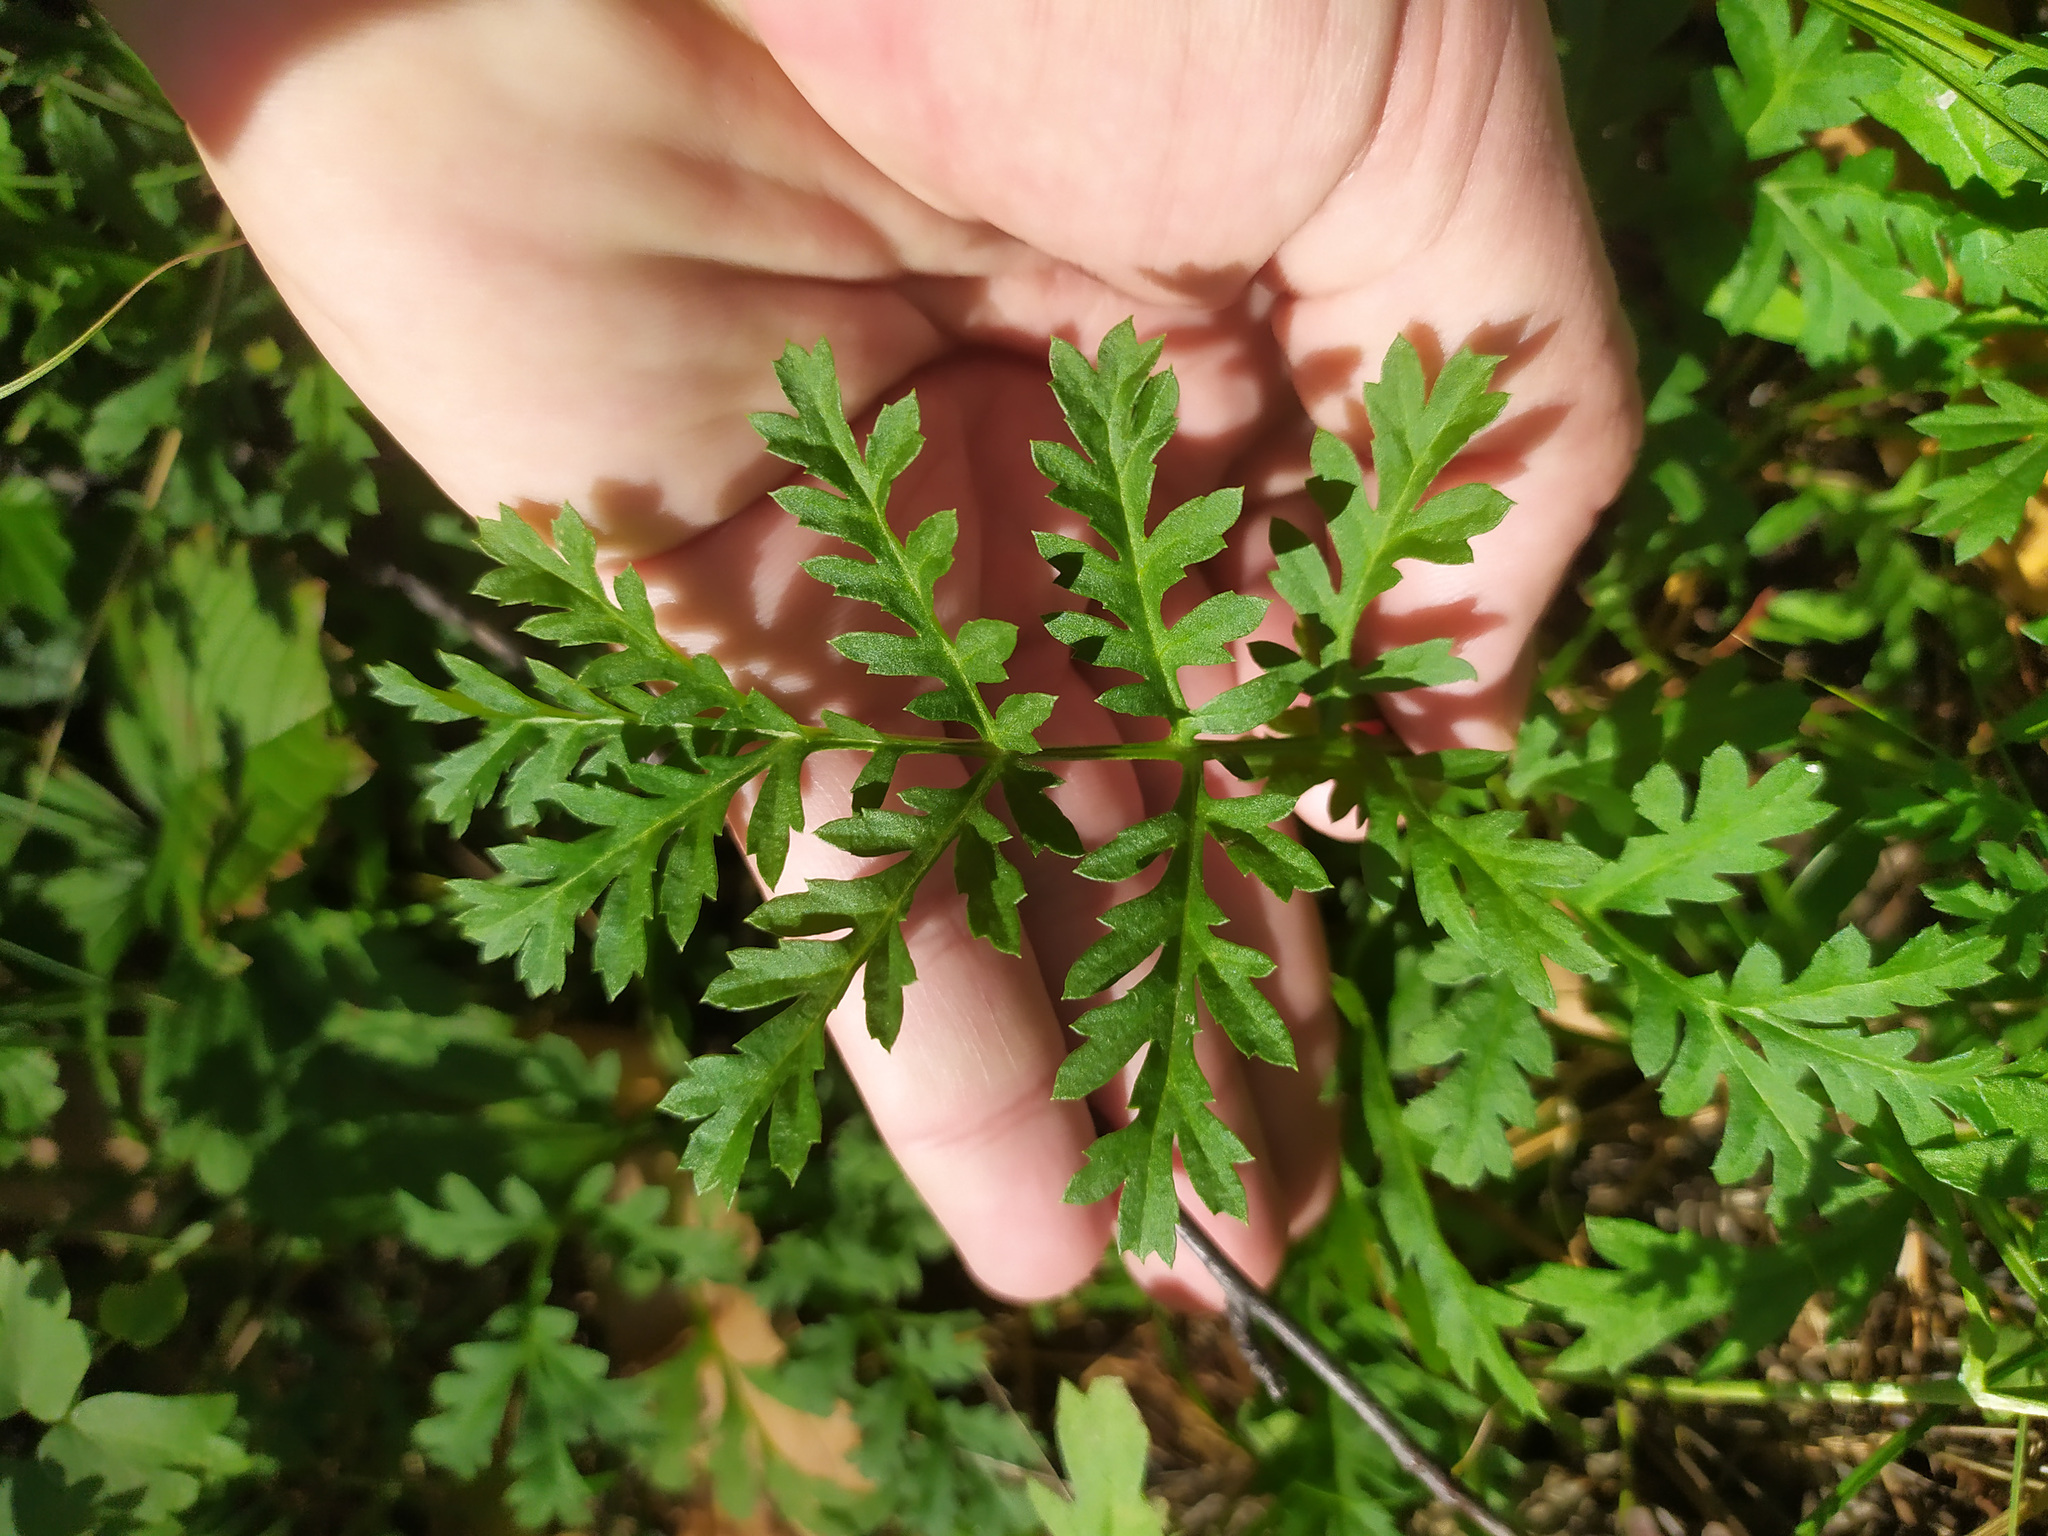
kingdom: Plantae
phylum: Tracheophyta
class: Magnoliopsida
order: Boraginales
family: Hydrophyllaceae
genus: Phacelia
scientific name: Phacelia tanacetifolia
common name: Phacelia
